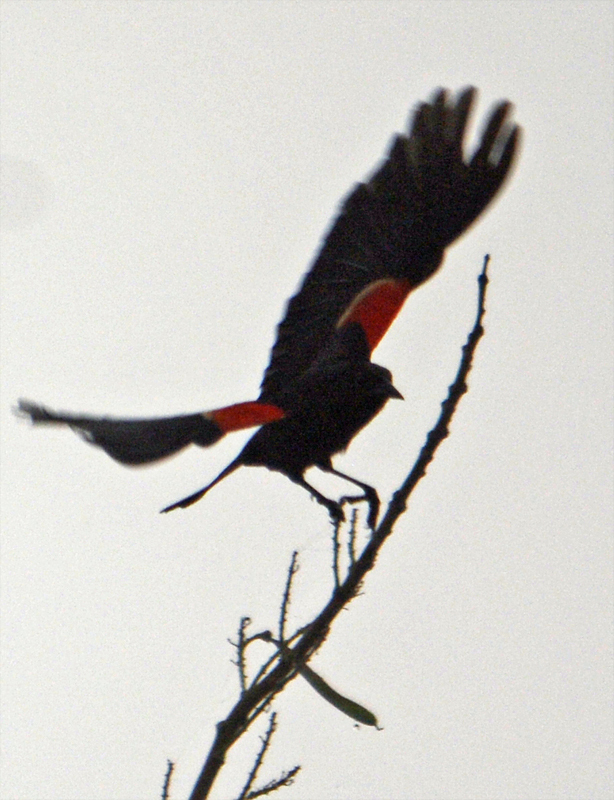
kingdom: Animalia
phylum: Chordata
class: Aves
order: Passeriformes
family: Icteridae
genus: Agelaius
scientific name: Agelaius phoeniceus
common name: Red-winged blackbird
